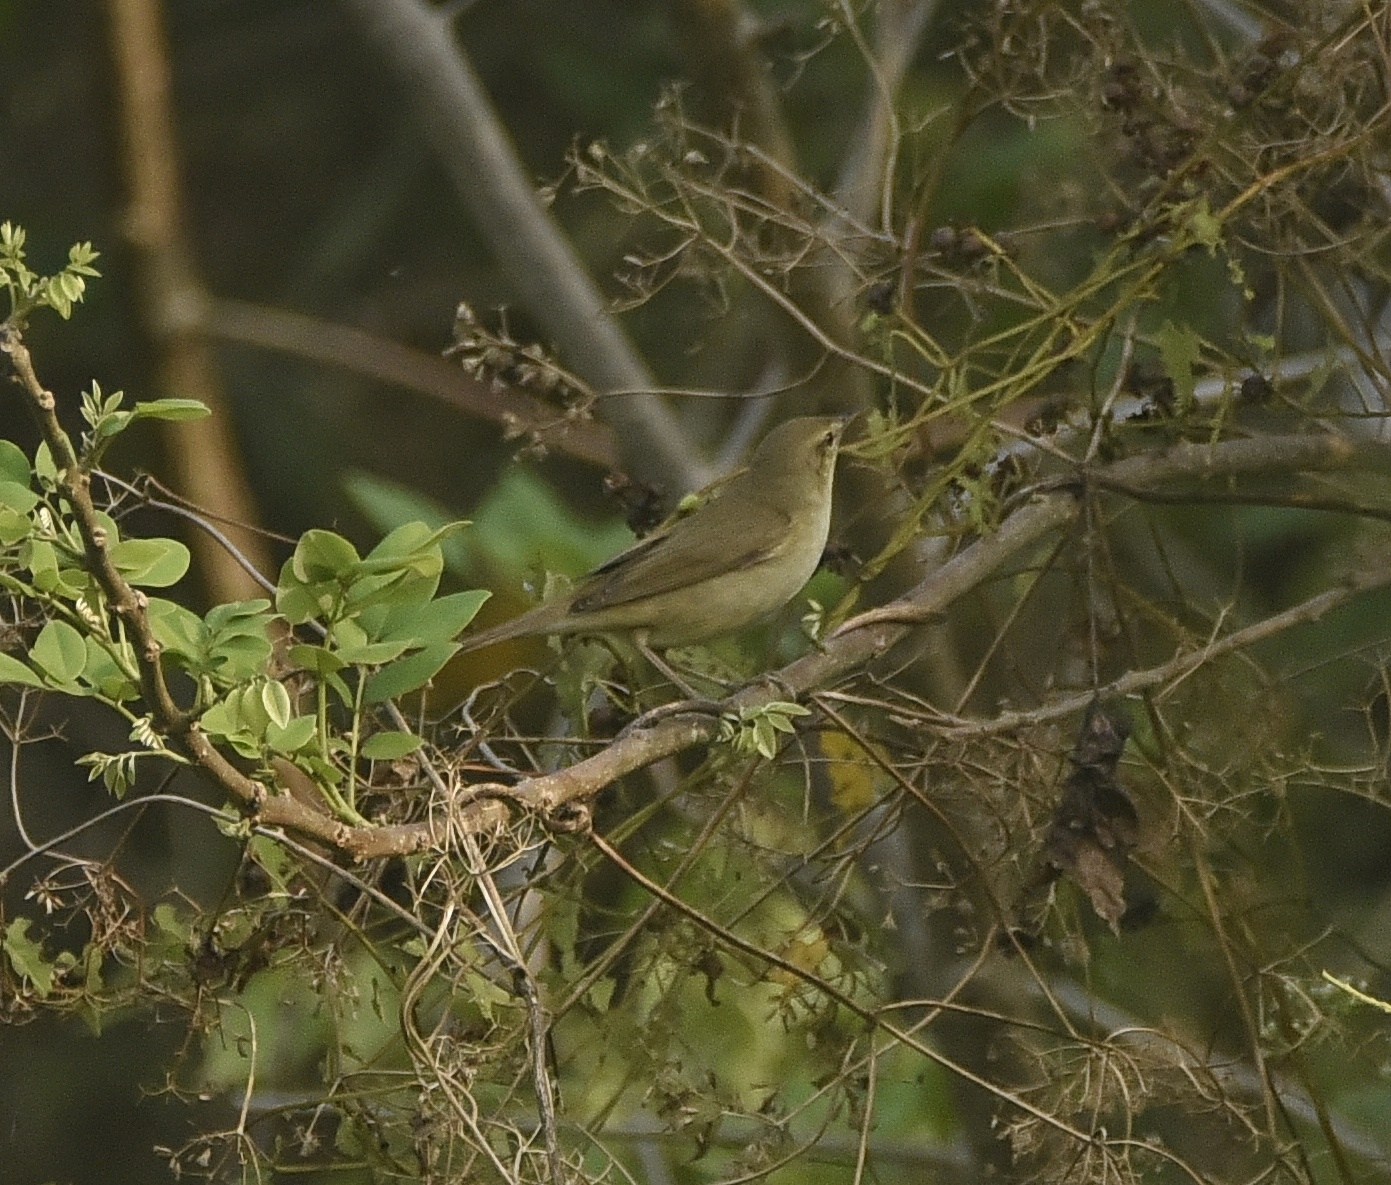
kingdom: Animalia
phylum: Chordata
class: Aves
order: Passeriformes
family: Acrocephalidae
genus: Acrocephalus
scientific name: Acrocephalus dumetorum
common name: Blyth's reed warbler
